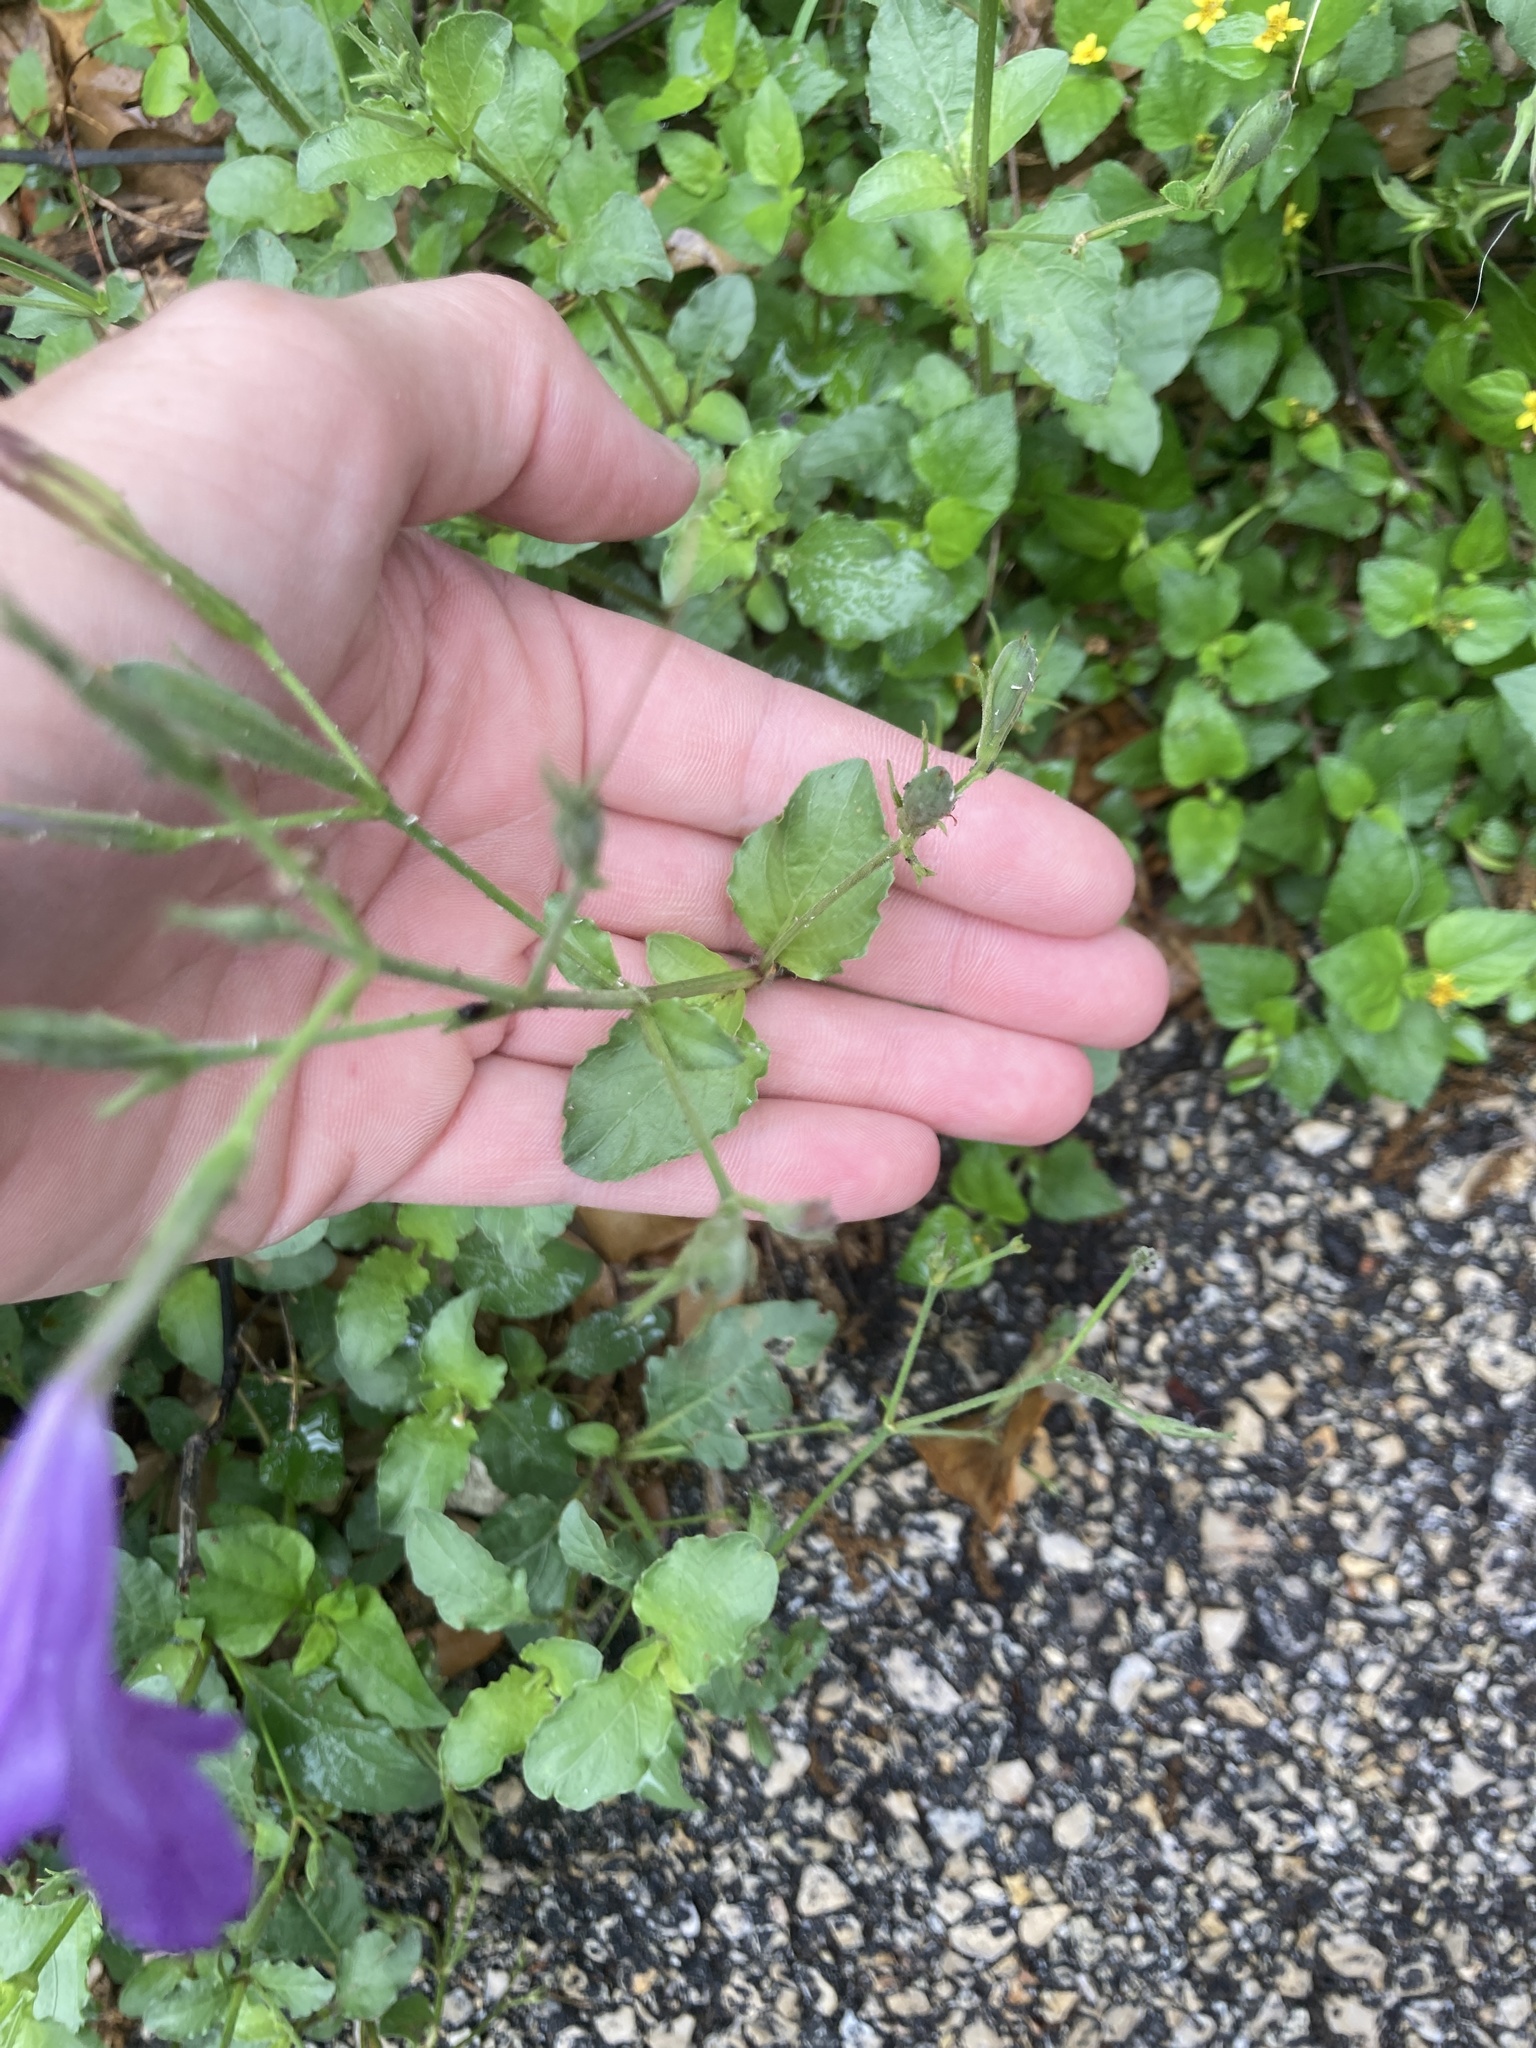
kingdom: Plantae
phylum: Tracheophyta
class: Magnoliopsida
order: Lamiales
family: Acanthaceae
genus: Ruellia
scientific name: Ruellia ciliatiflora
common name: Hairyflower wild petunia
